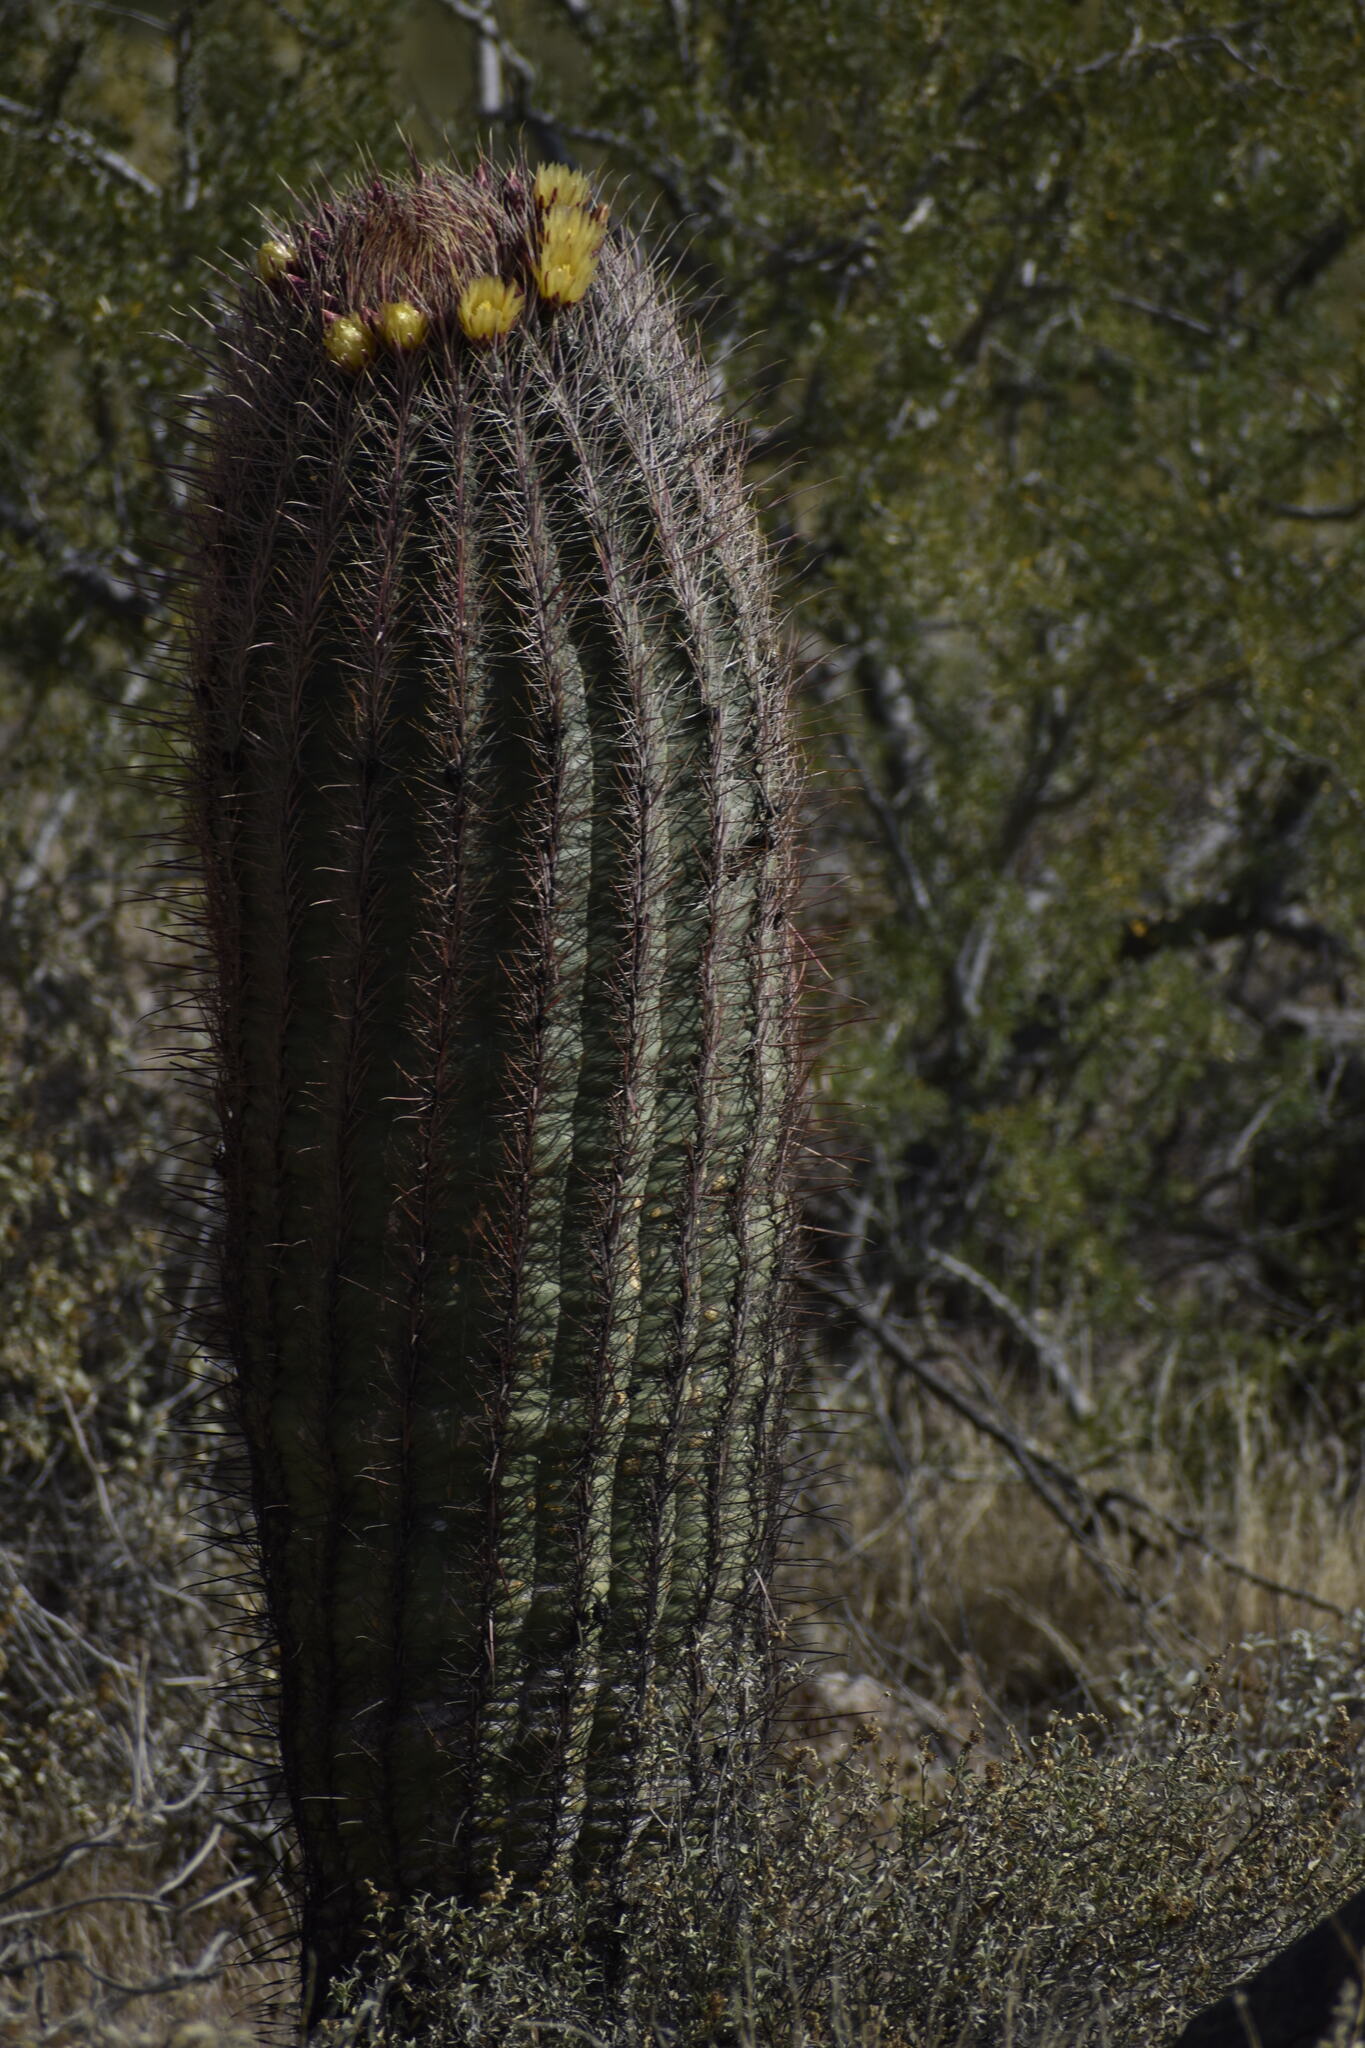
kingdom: Plantae
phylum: Tracheophyta
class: Magnoliopsida
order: Caryophyllales
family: Cactaceae
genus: Ferocactus
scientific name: Ferocactus cylindraceus
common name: California barrel cactus
